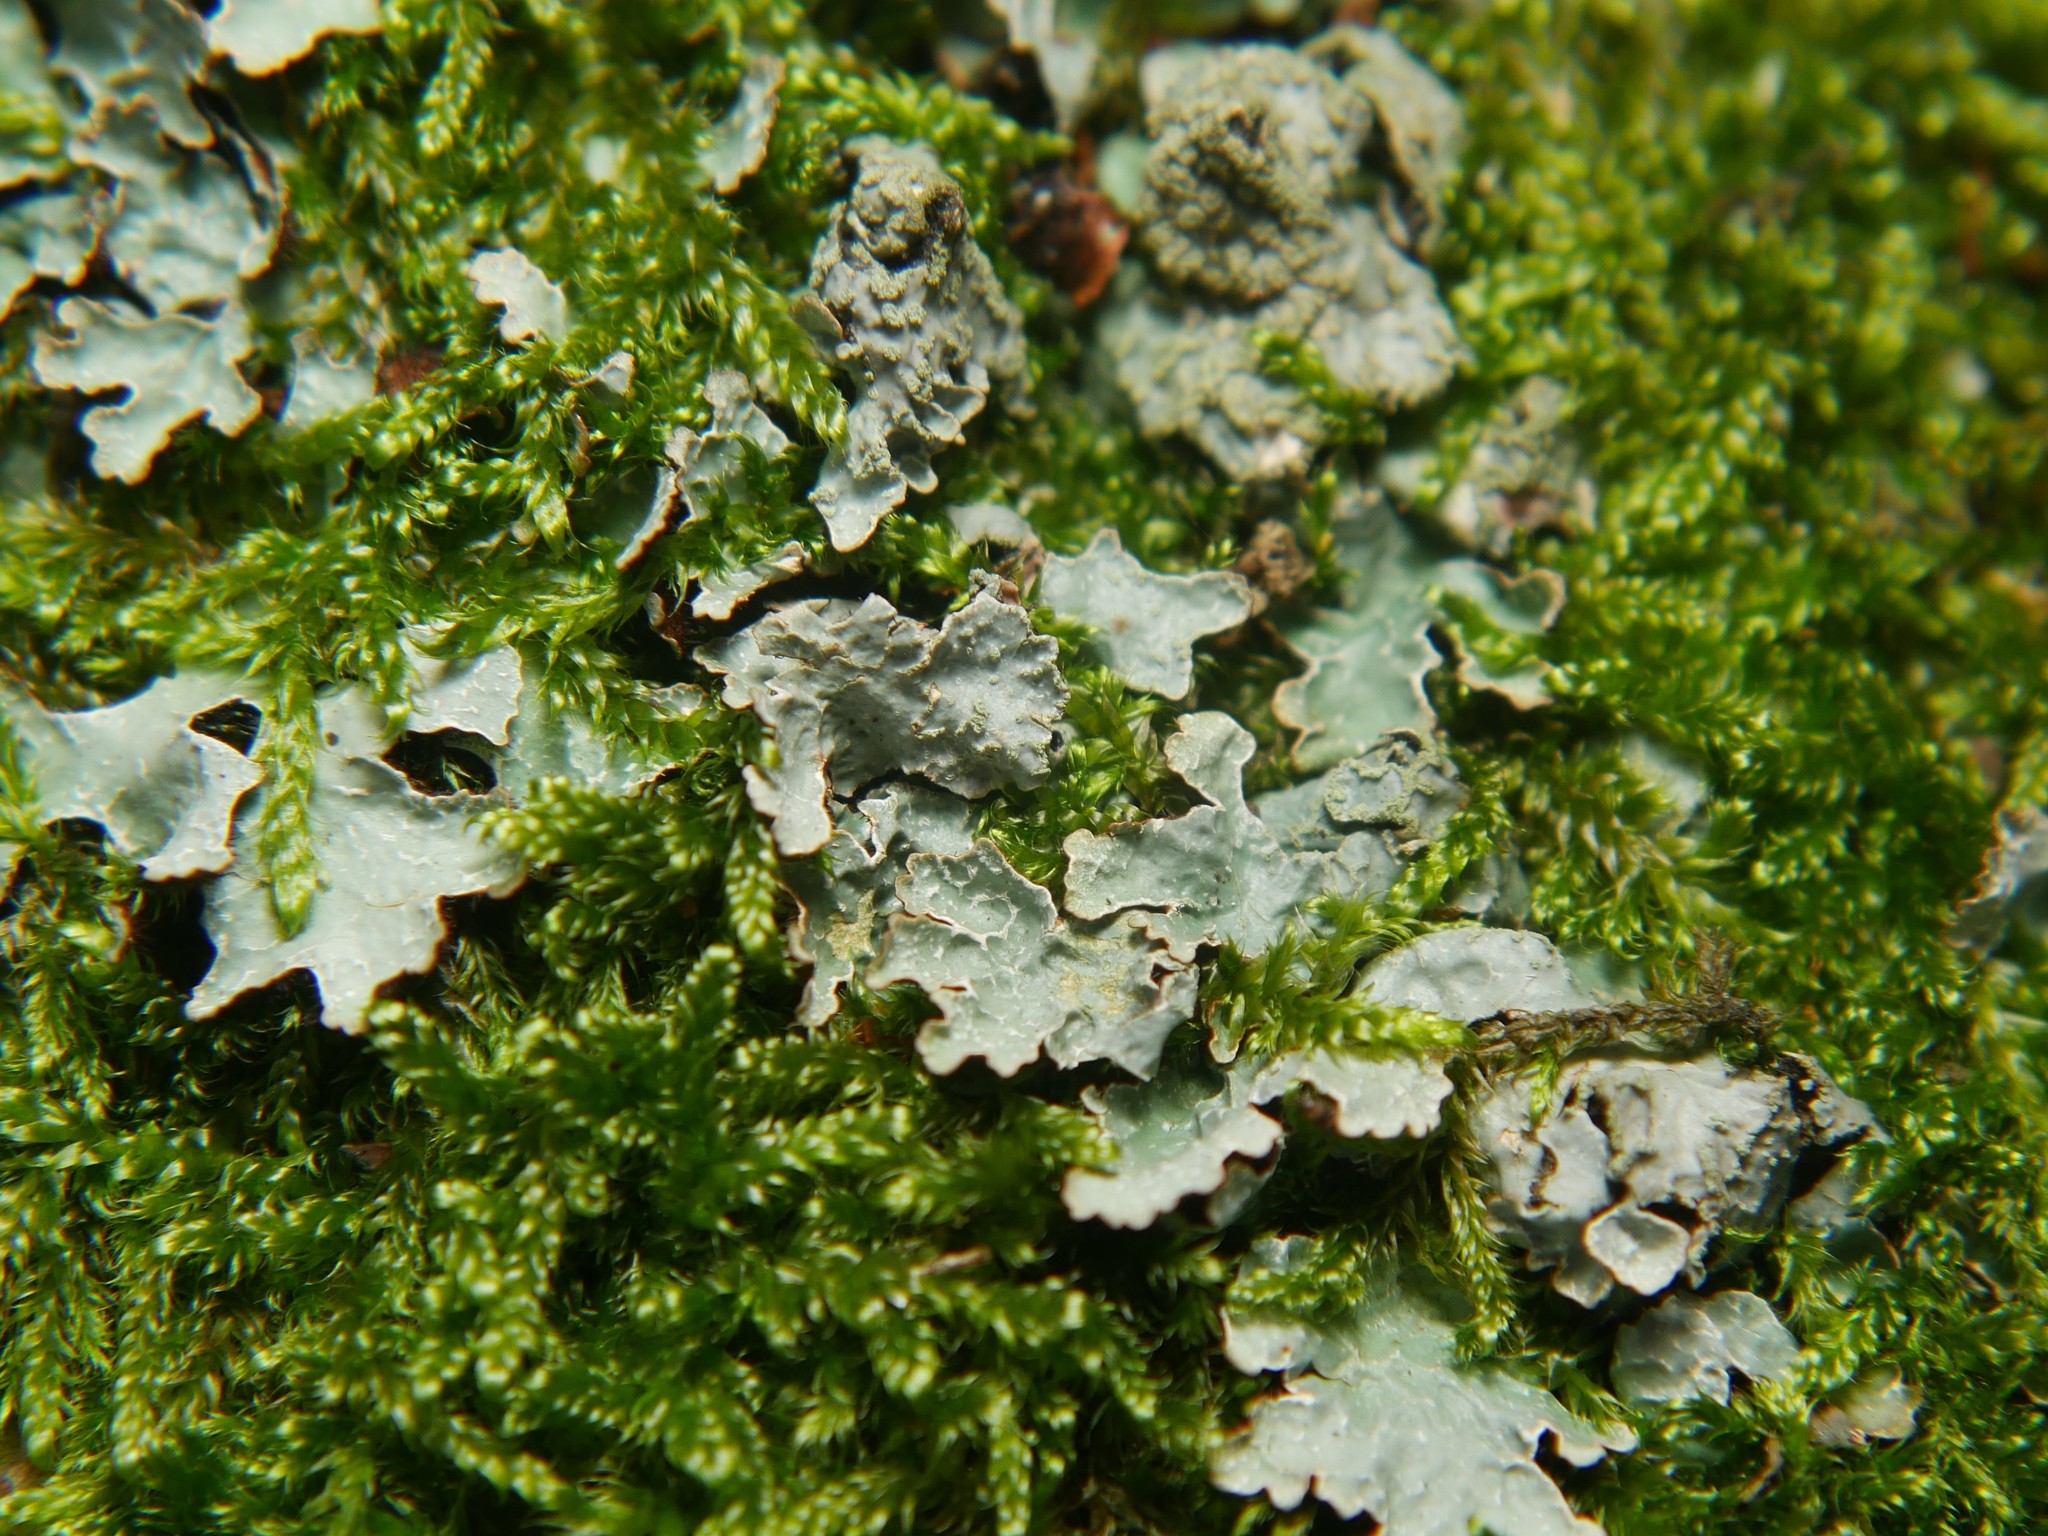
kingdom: Fungi
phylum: Ascomycota
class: Lecanoromycetes
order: Lecanorales
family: Parmeliaceae
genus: Parmelia
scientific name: Parmelia sulcata
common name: Netted shield lichen
